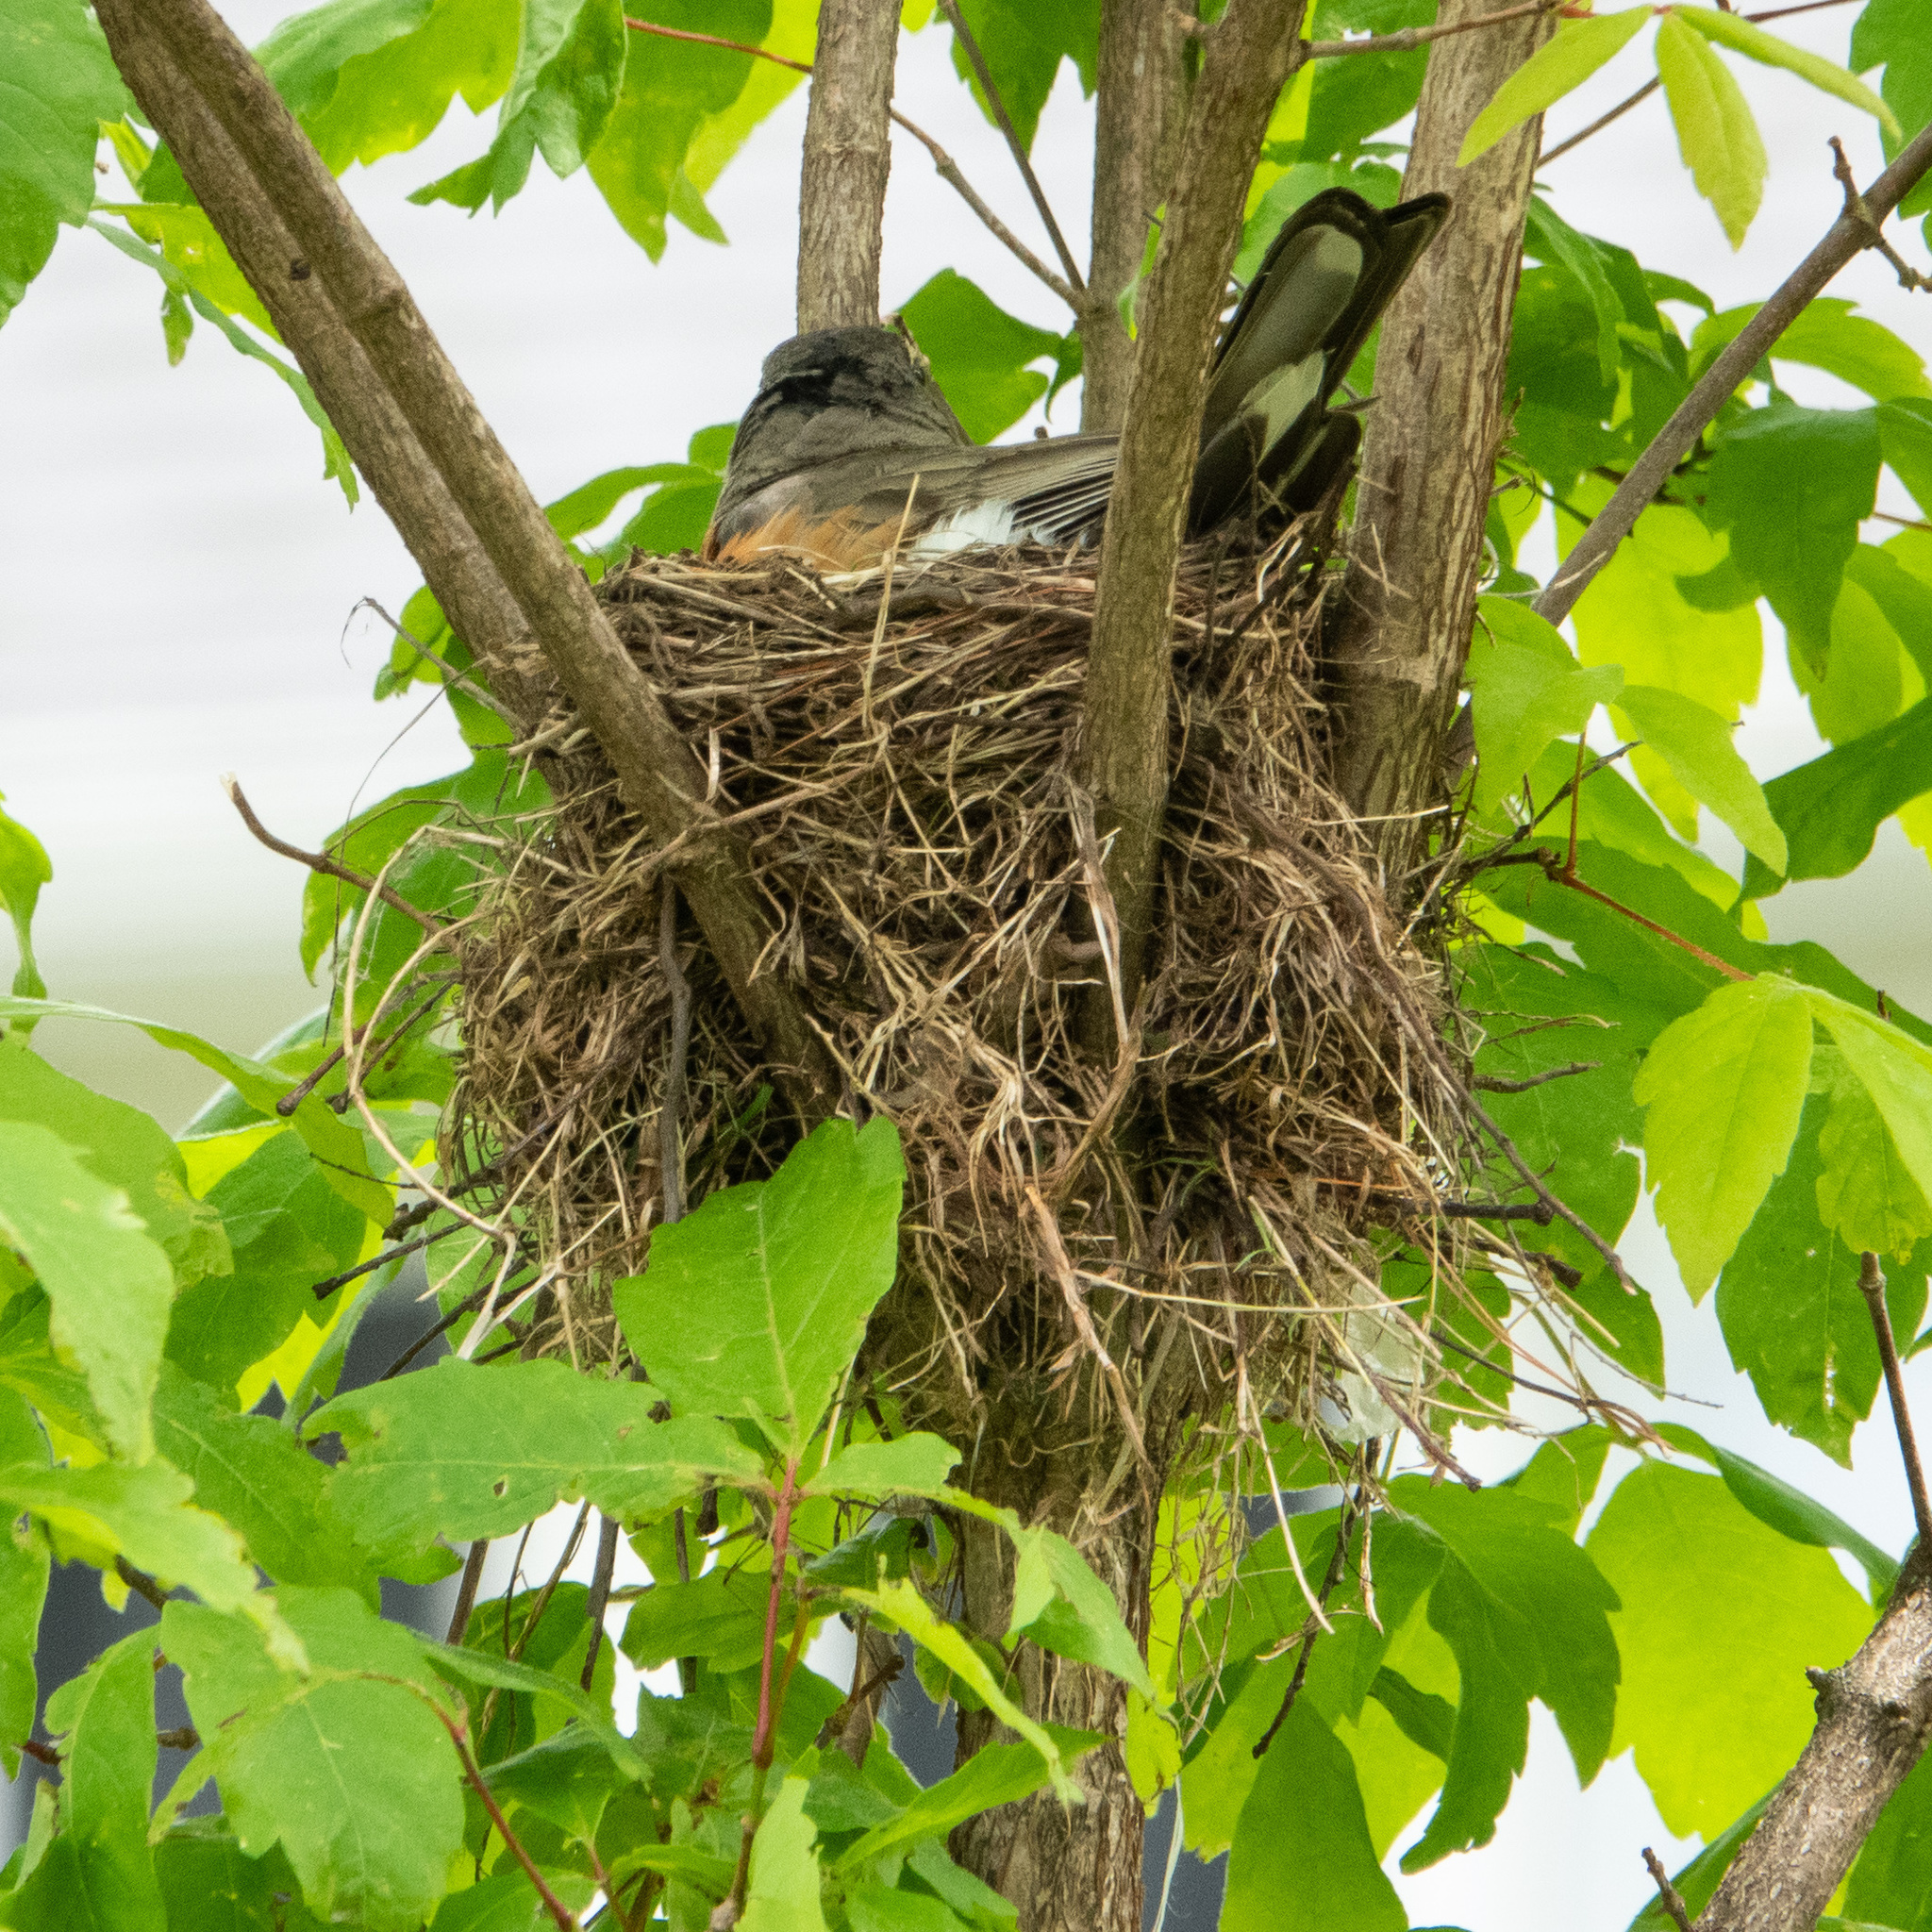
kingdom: Animalia
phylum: Chordata
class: Aves
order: Passeriformes
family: Turdidae
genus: Turdus
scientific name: Turdus migratorius
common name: American robin
